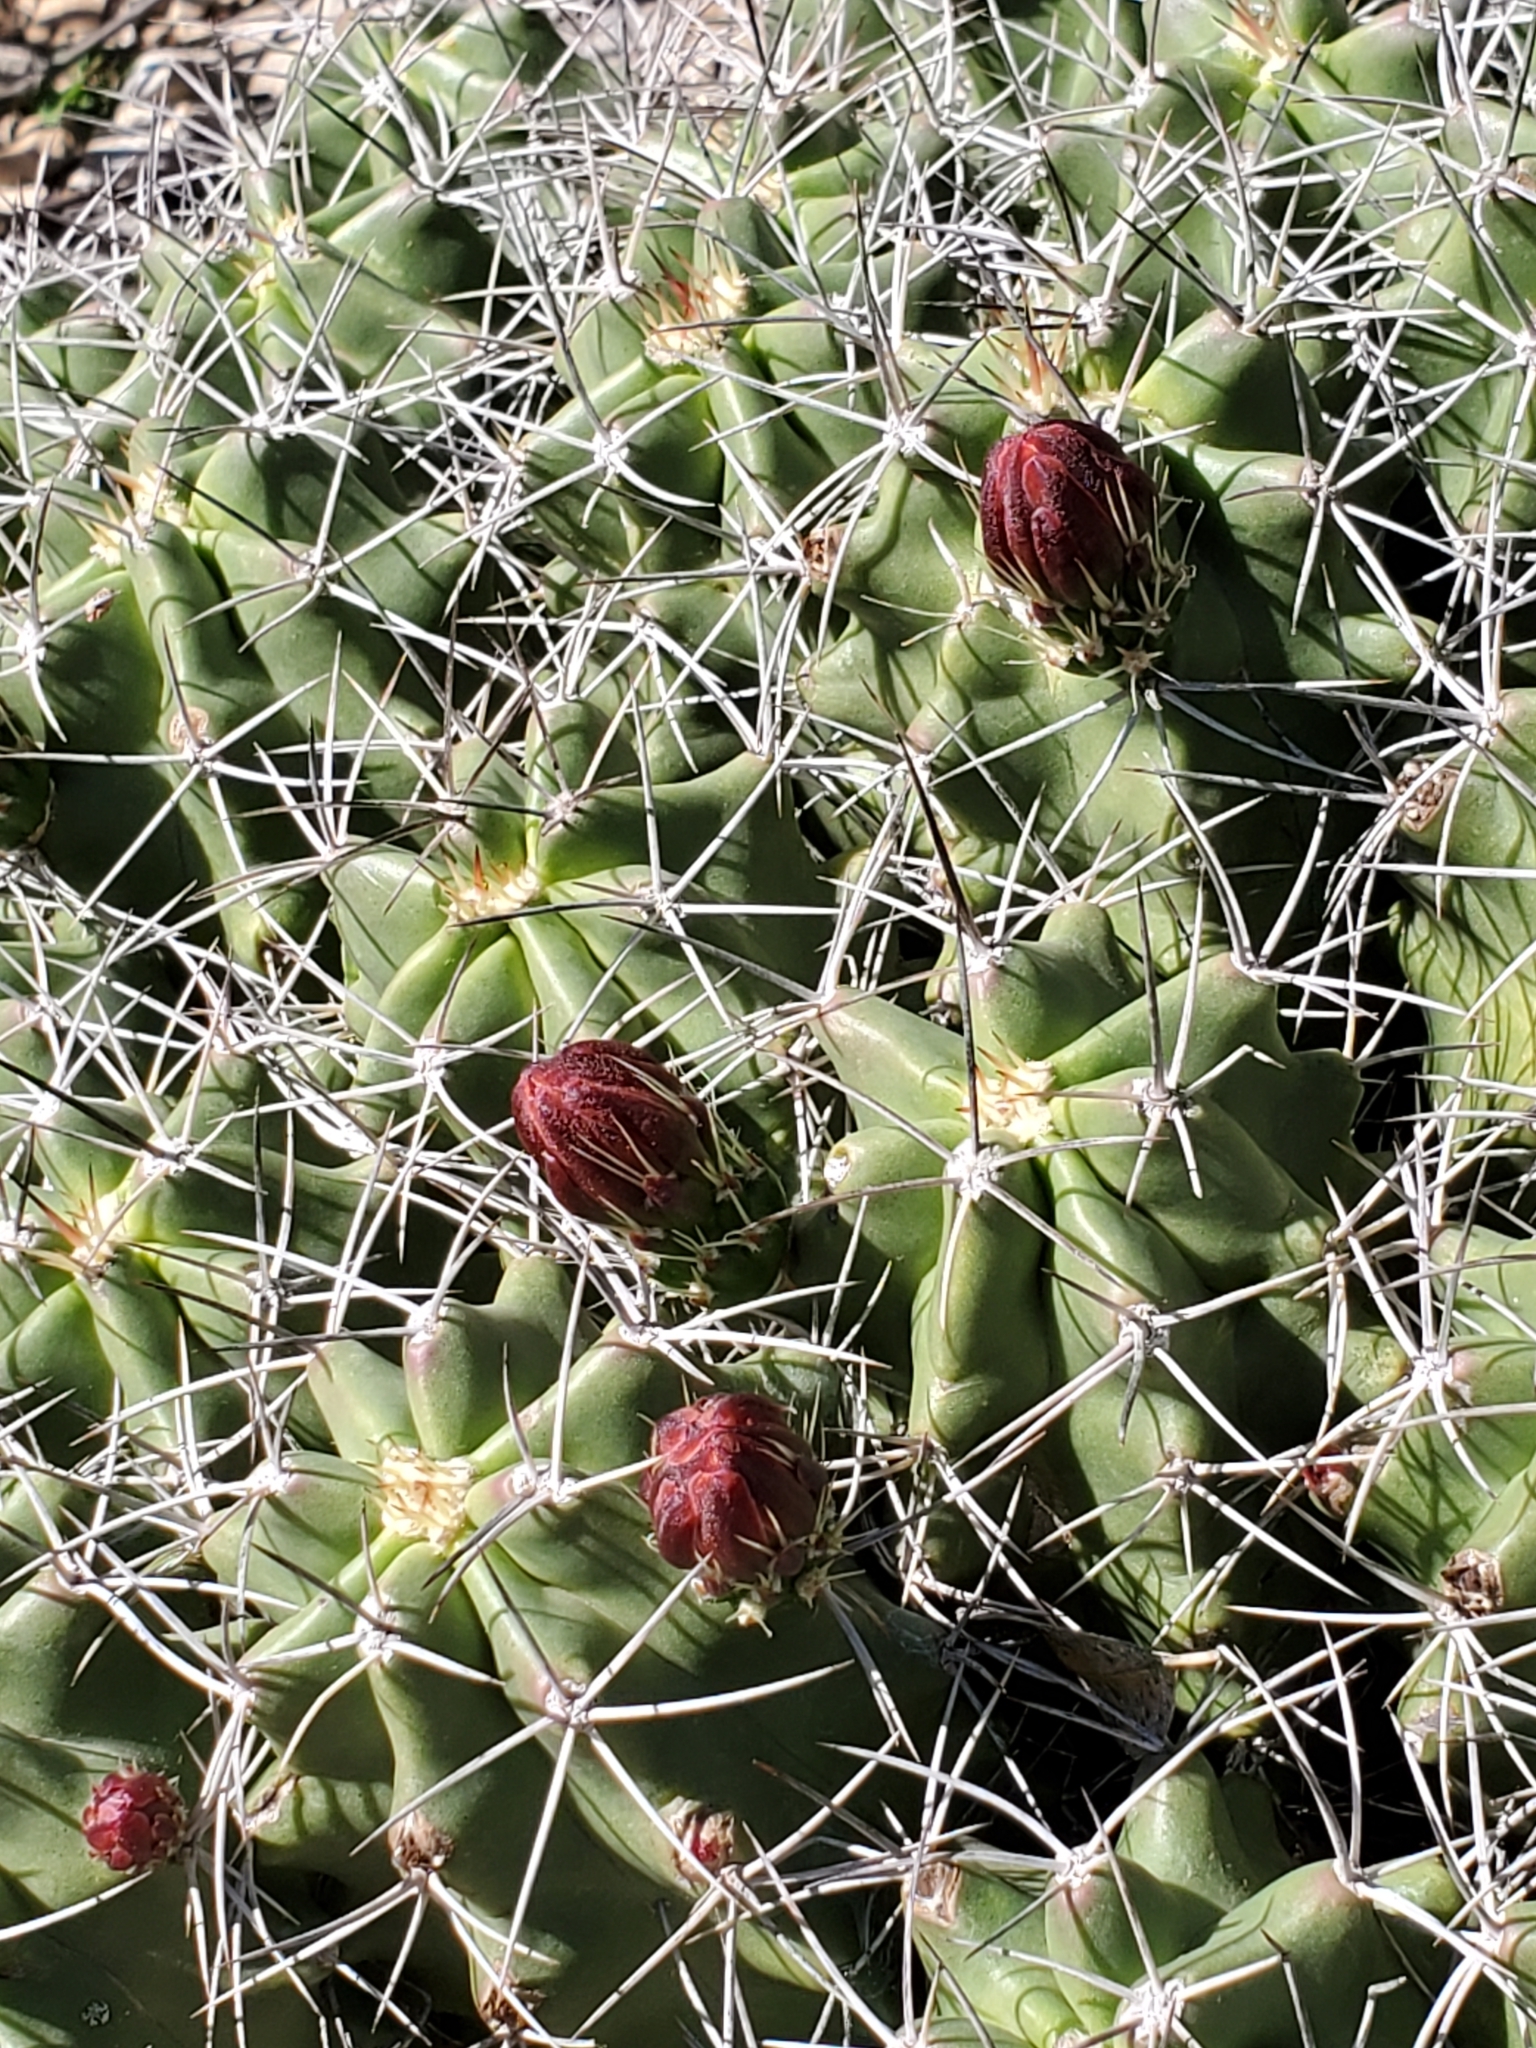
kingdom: Plantae
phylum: Tracheophyta
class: Magnoliopsida
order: Caryophyllales
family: Cactaceae
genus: Echinocereus
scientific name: Echinocereus coccineus
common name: Scarlet hedgehog cactus
